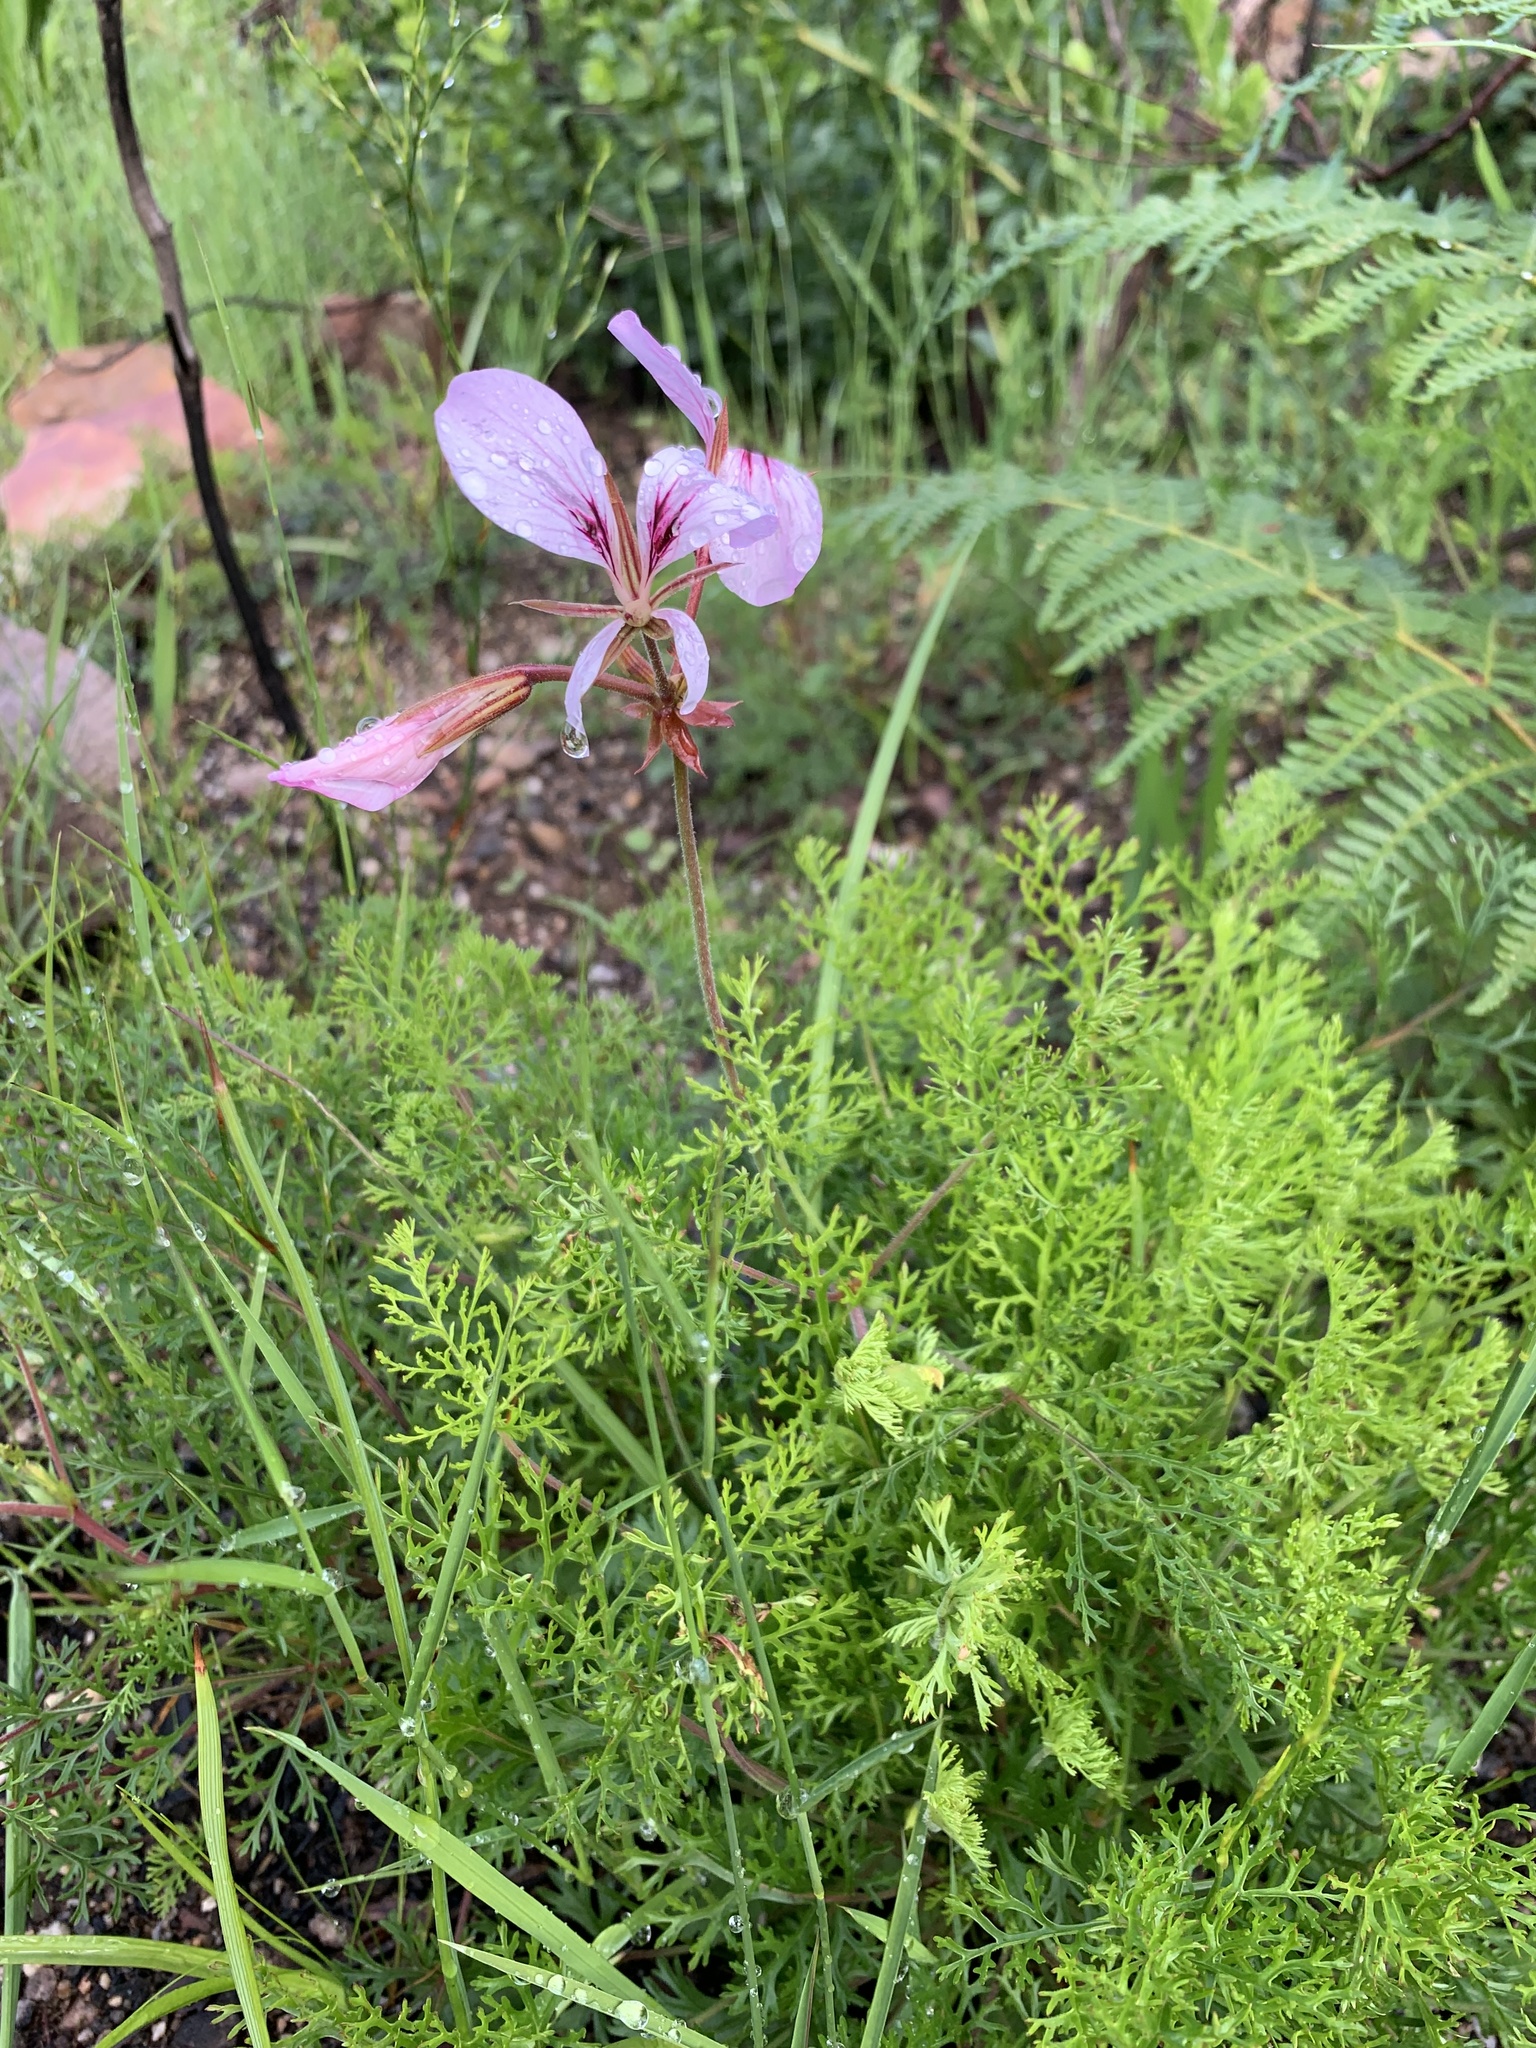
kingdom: Plantae
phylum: Tracheophyta
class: Magnoliopsida
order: Geraniales
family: Geraniaceae
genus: Pelargonium
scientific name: Pelargonium myrrhifolium
